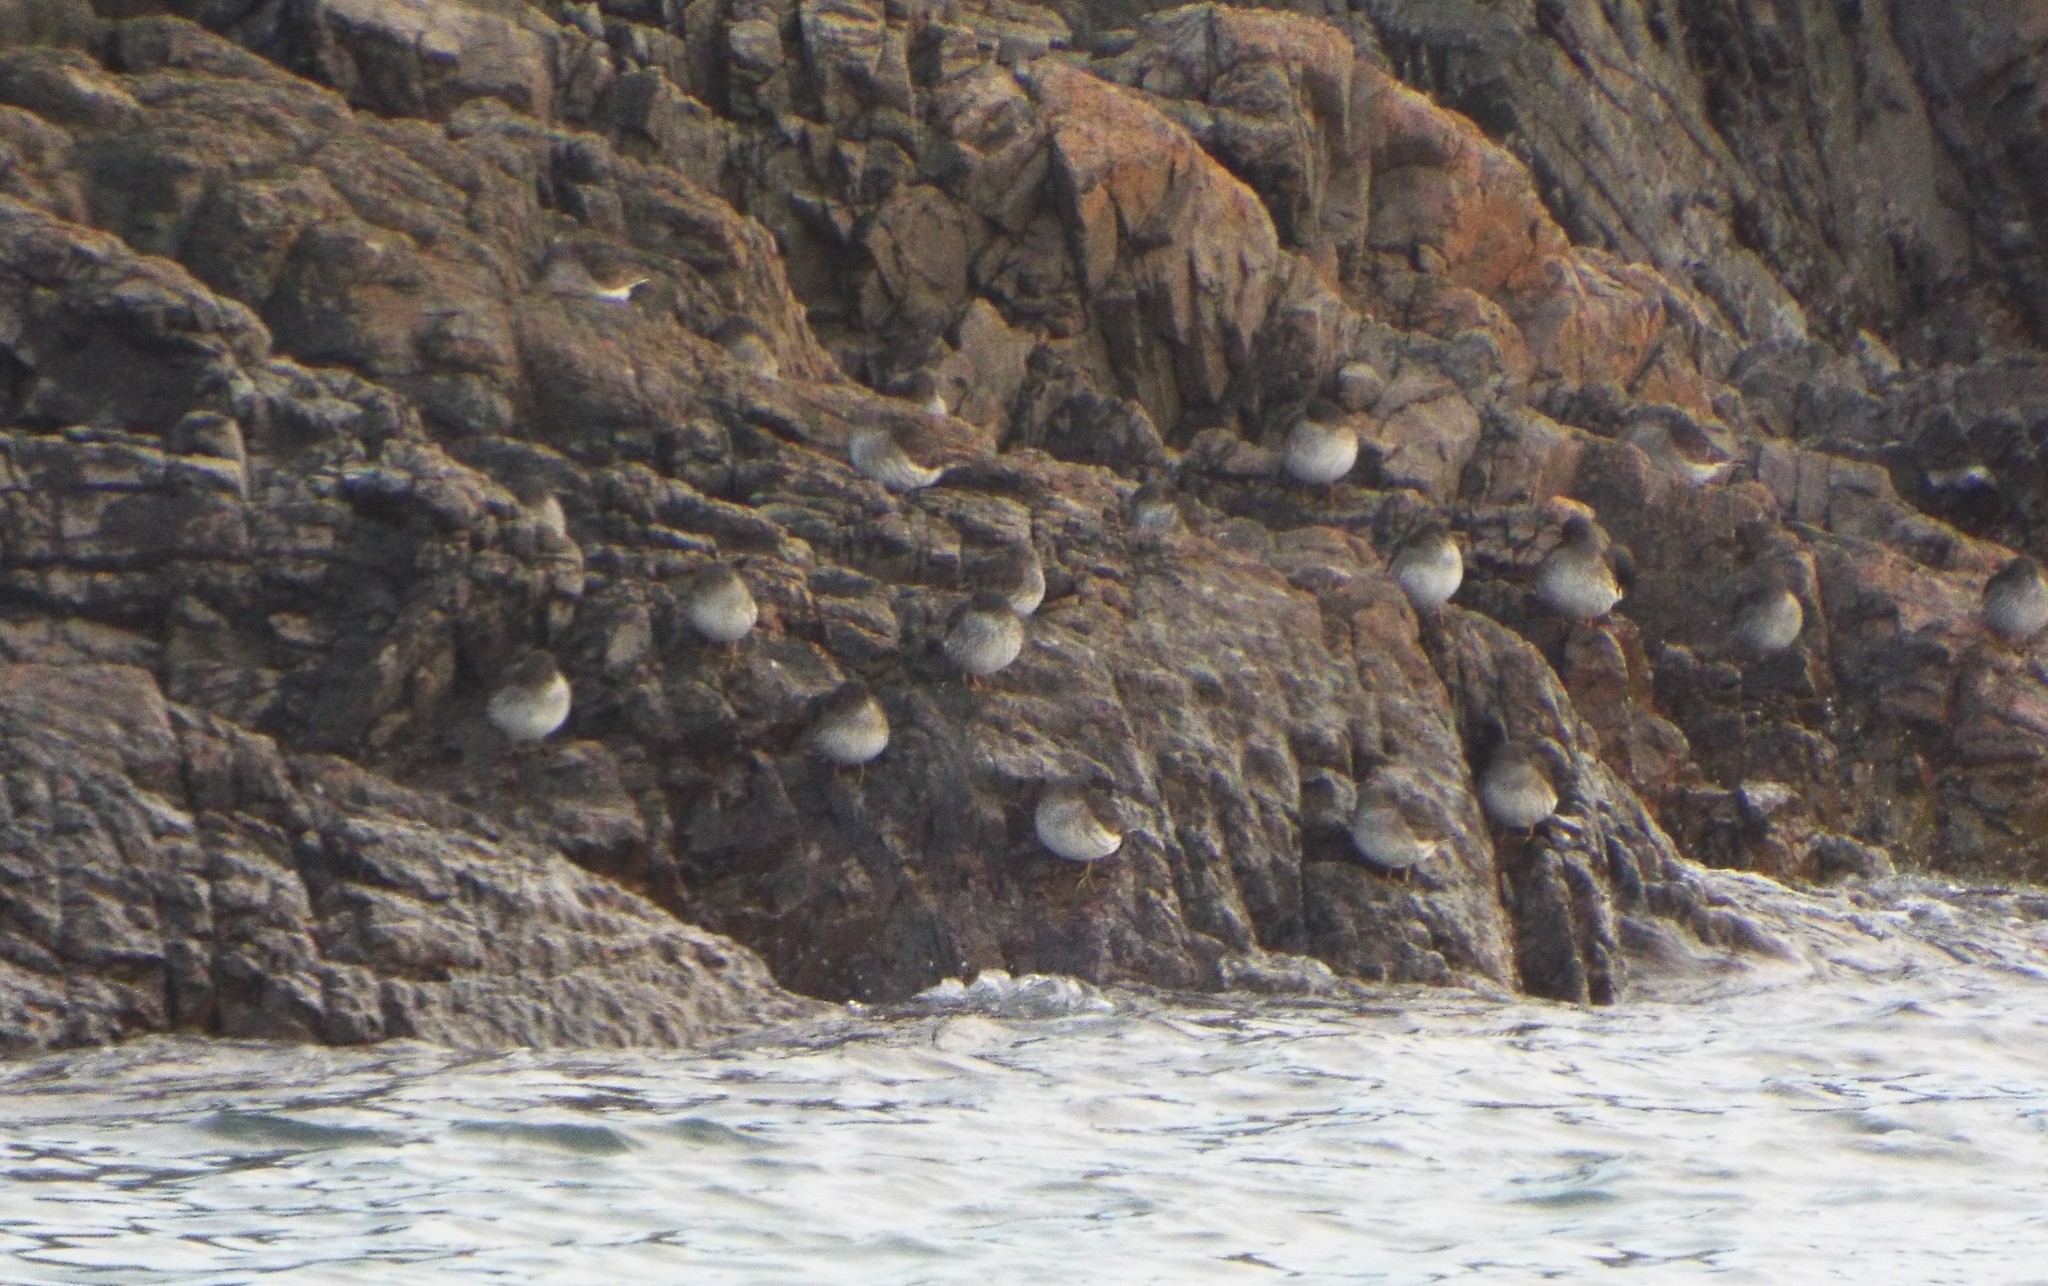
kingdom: Animalia
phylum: Chordata
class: Aves
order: Charadriiformes
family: Scolopacidae
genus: Calidris
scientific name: Calidris maritima
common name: Purple sandpiper
